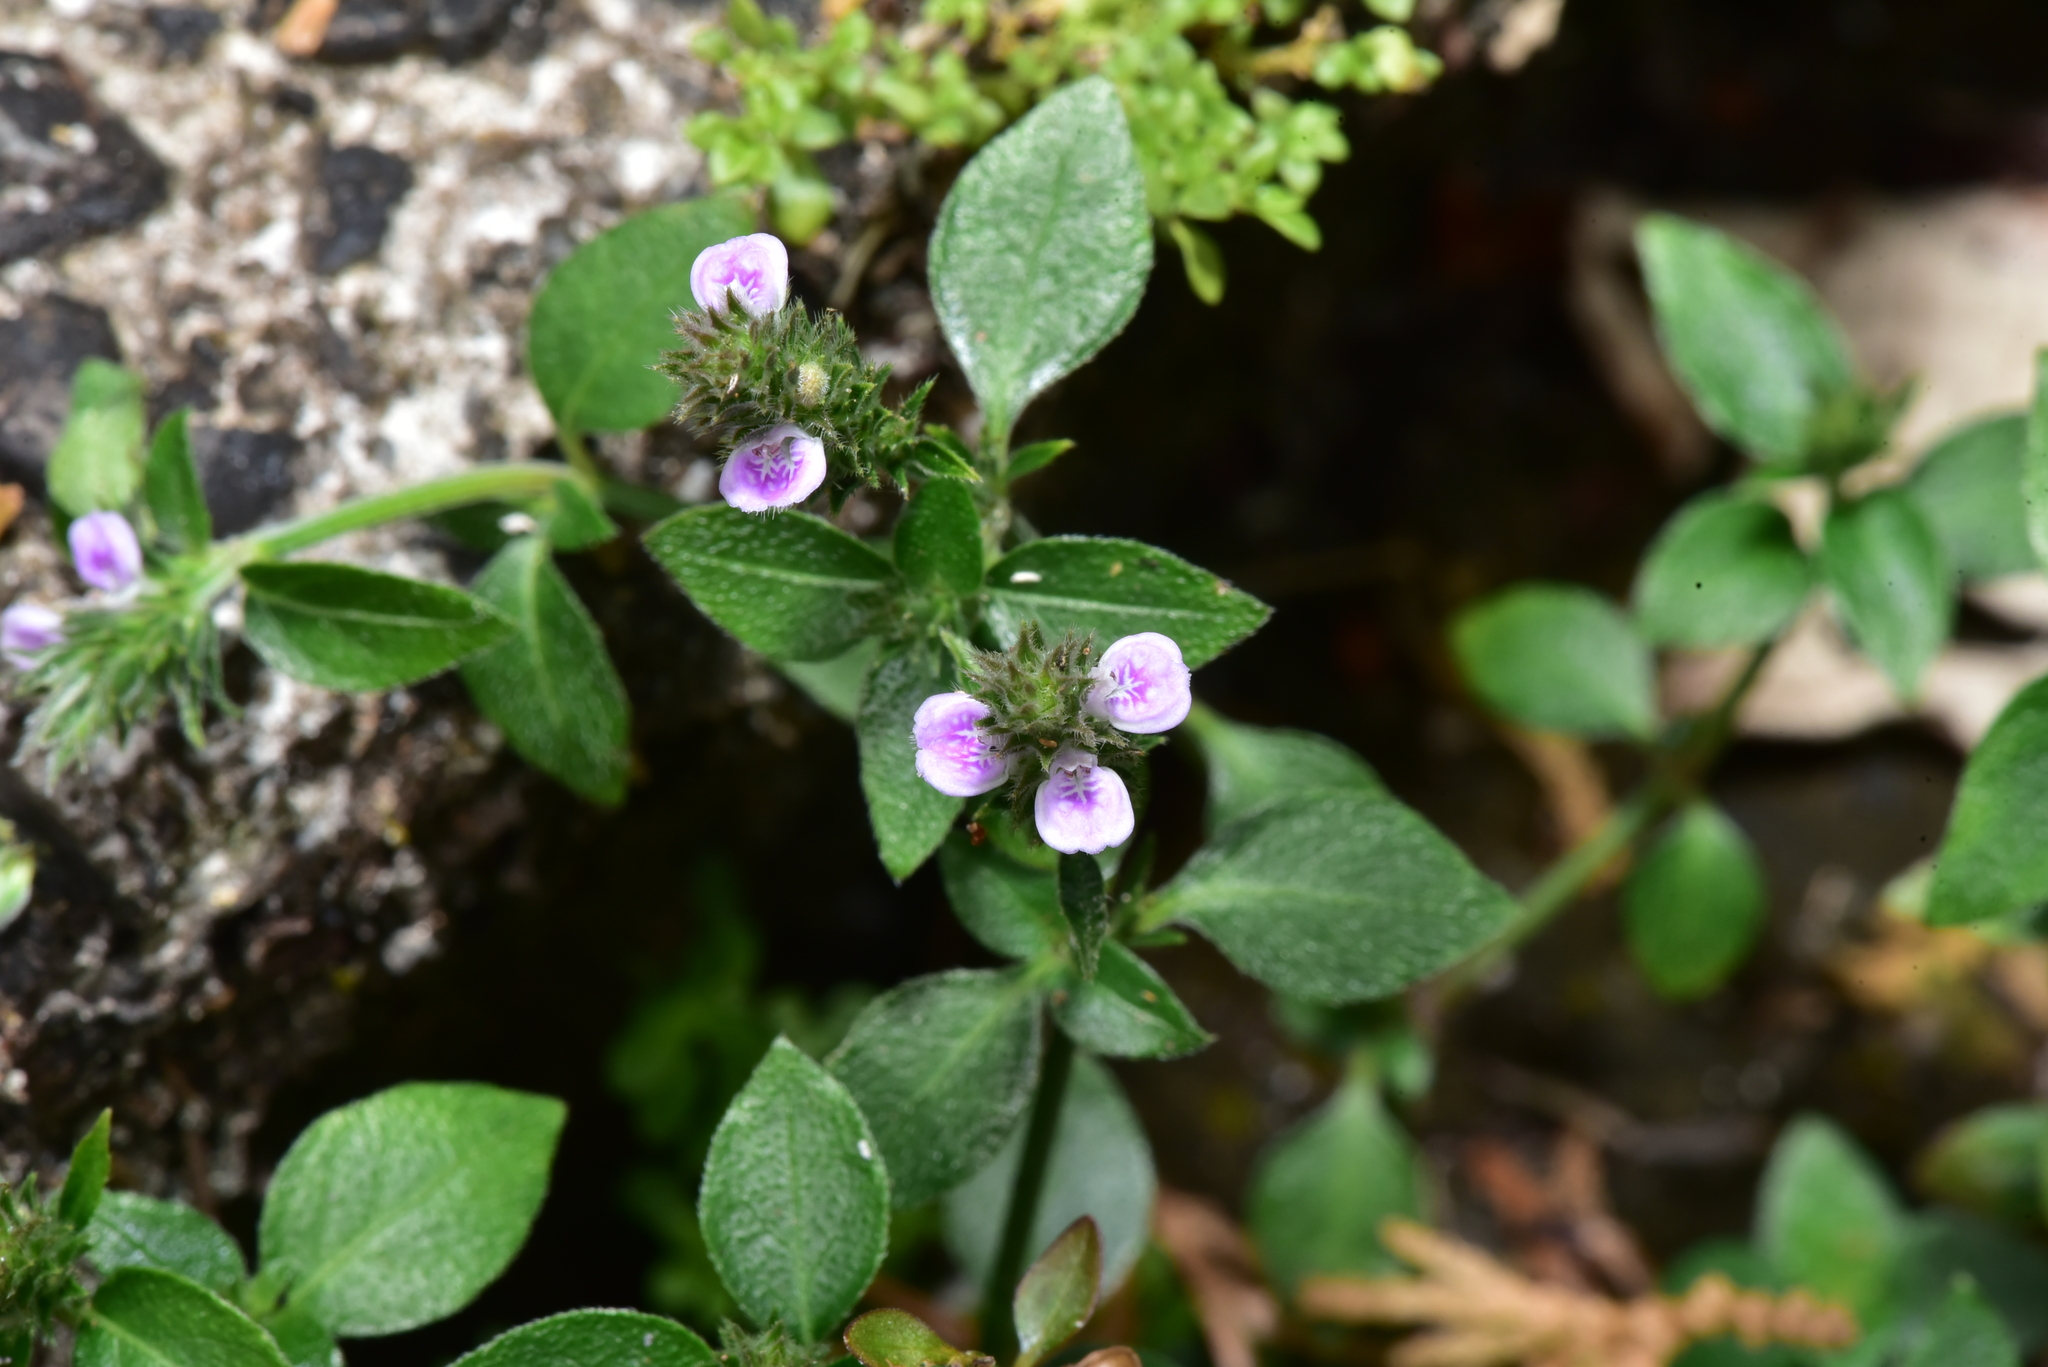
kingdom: Plantae
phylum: Tracheophyta
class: Magnoliopsida
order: Lamiales
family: Acanthaceae
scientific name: Acanthaceae
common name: Acanthaceae
